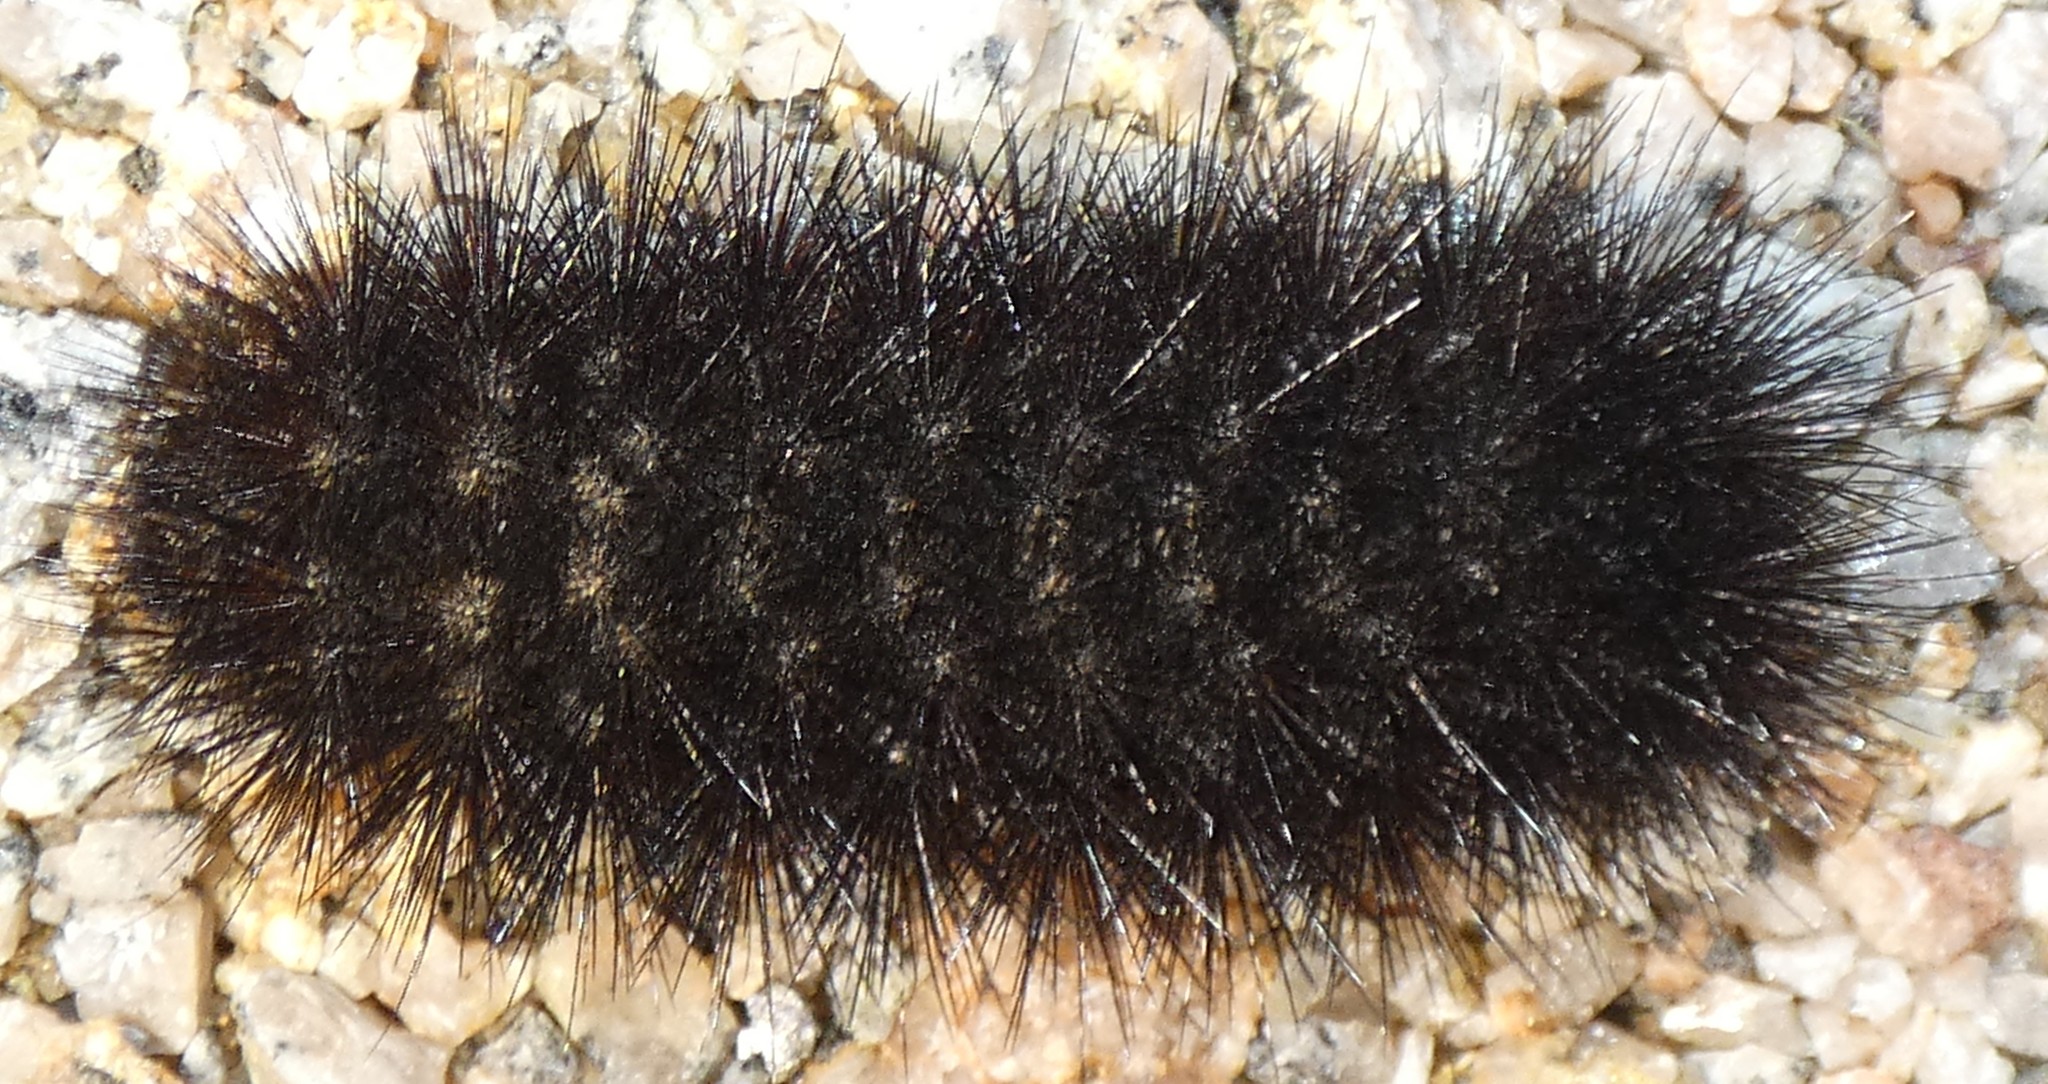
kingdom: Animalia
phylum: Arthropoda
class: Insecta
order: Lepidoptera
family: Erebidae
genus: Hypercompe
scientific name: Hypercompe scribonia
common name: Giant leopard moth
